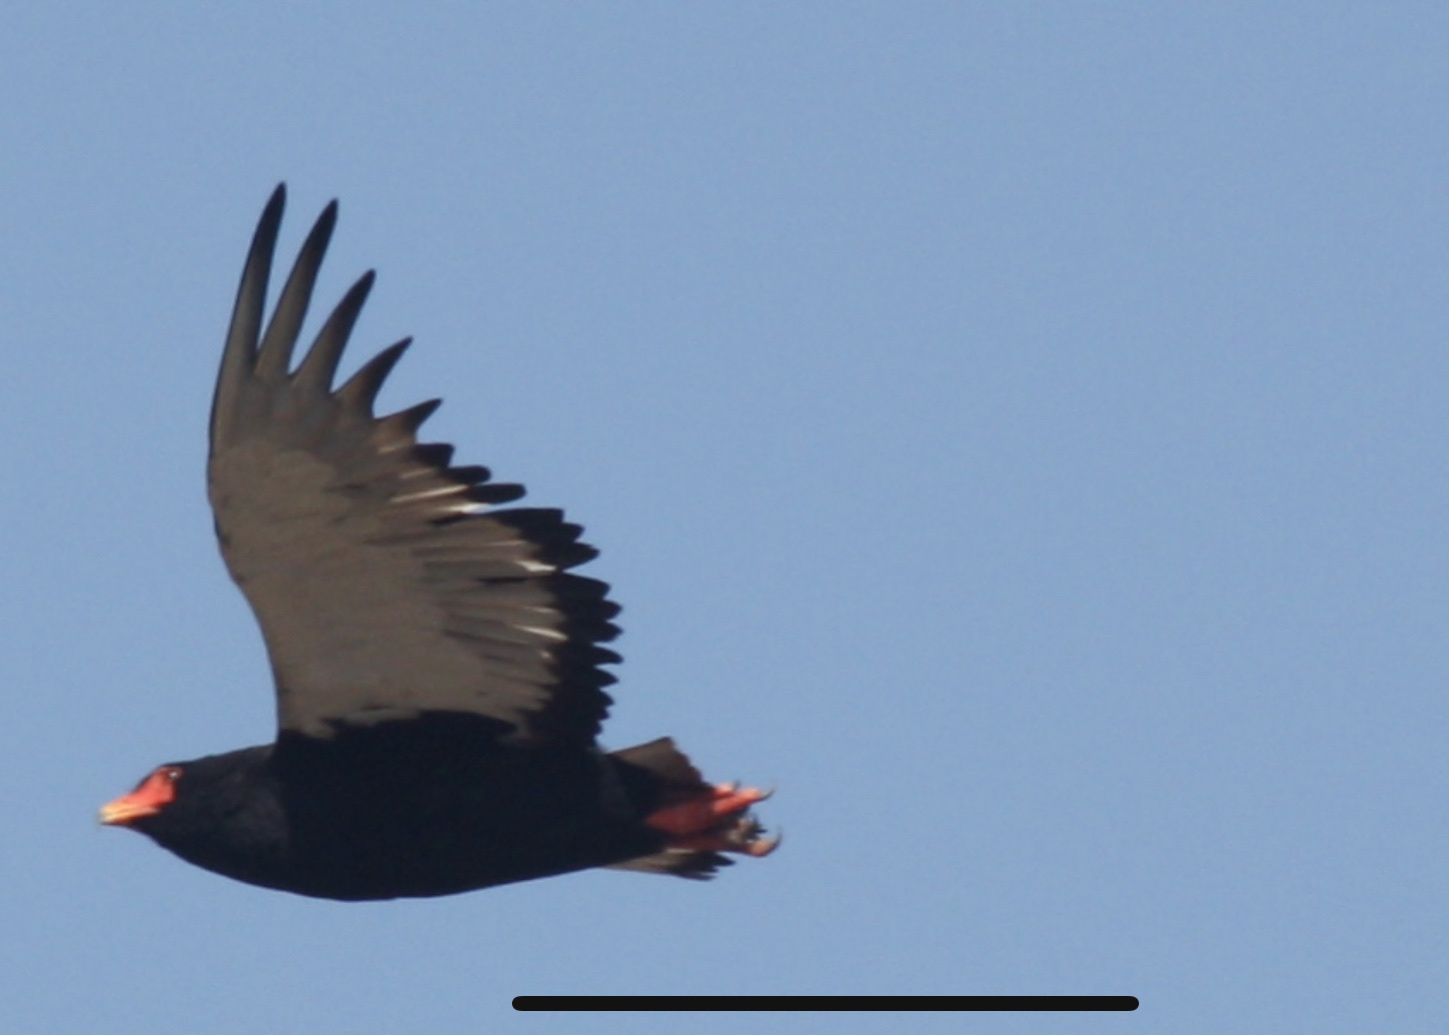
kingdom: Animalia
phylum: Chordata
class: Aves
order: Accipitriformes
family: Accipitridae
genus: Terathopius
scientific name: Terathopius ecaudatus
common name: Bateleur
